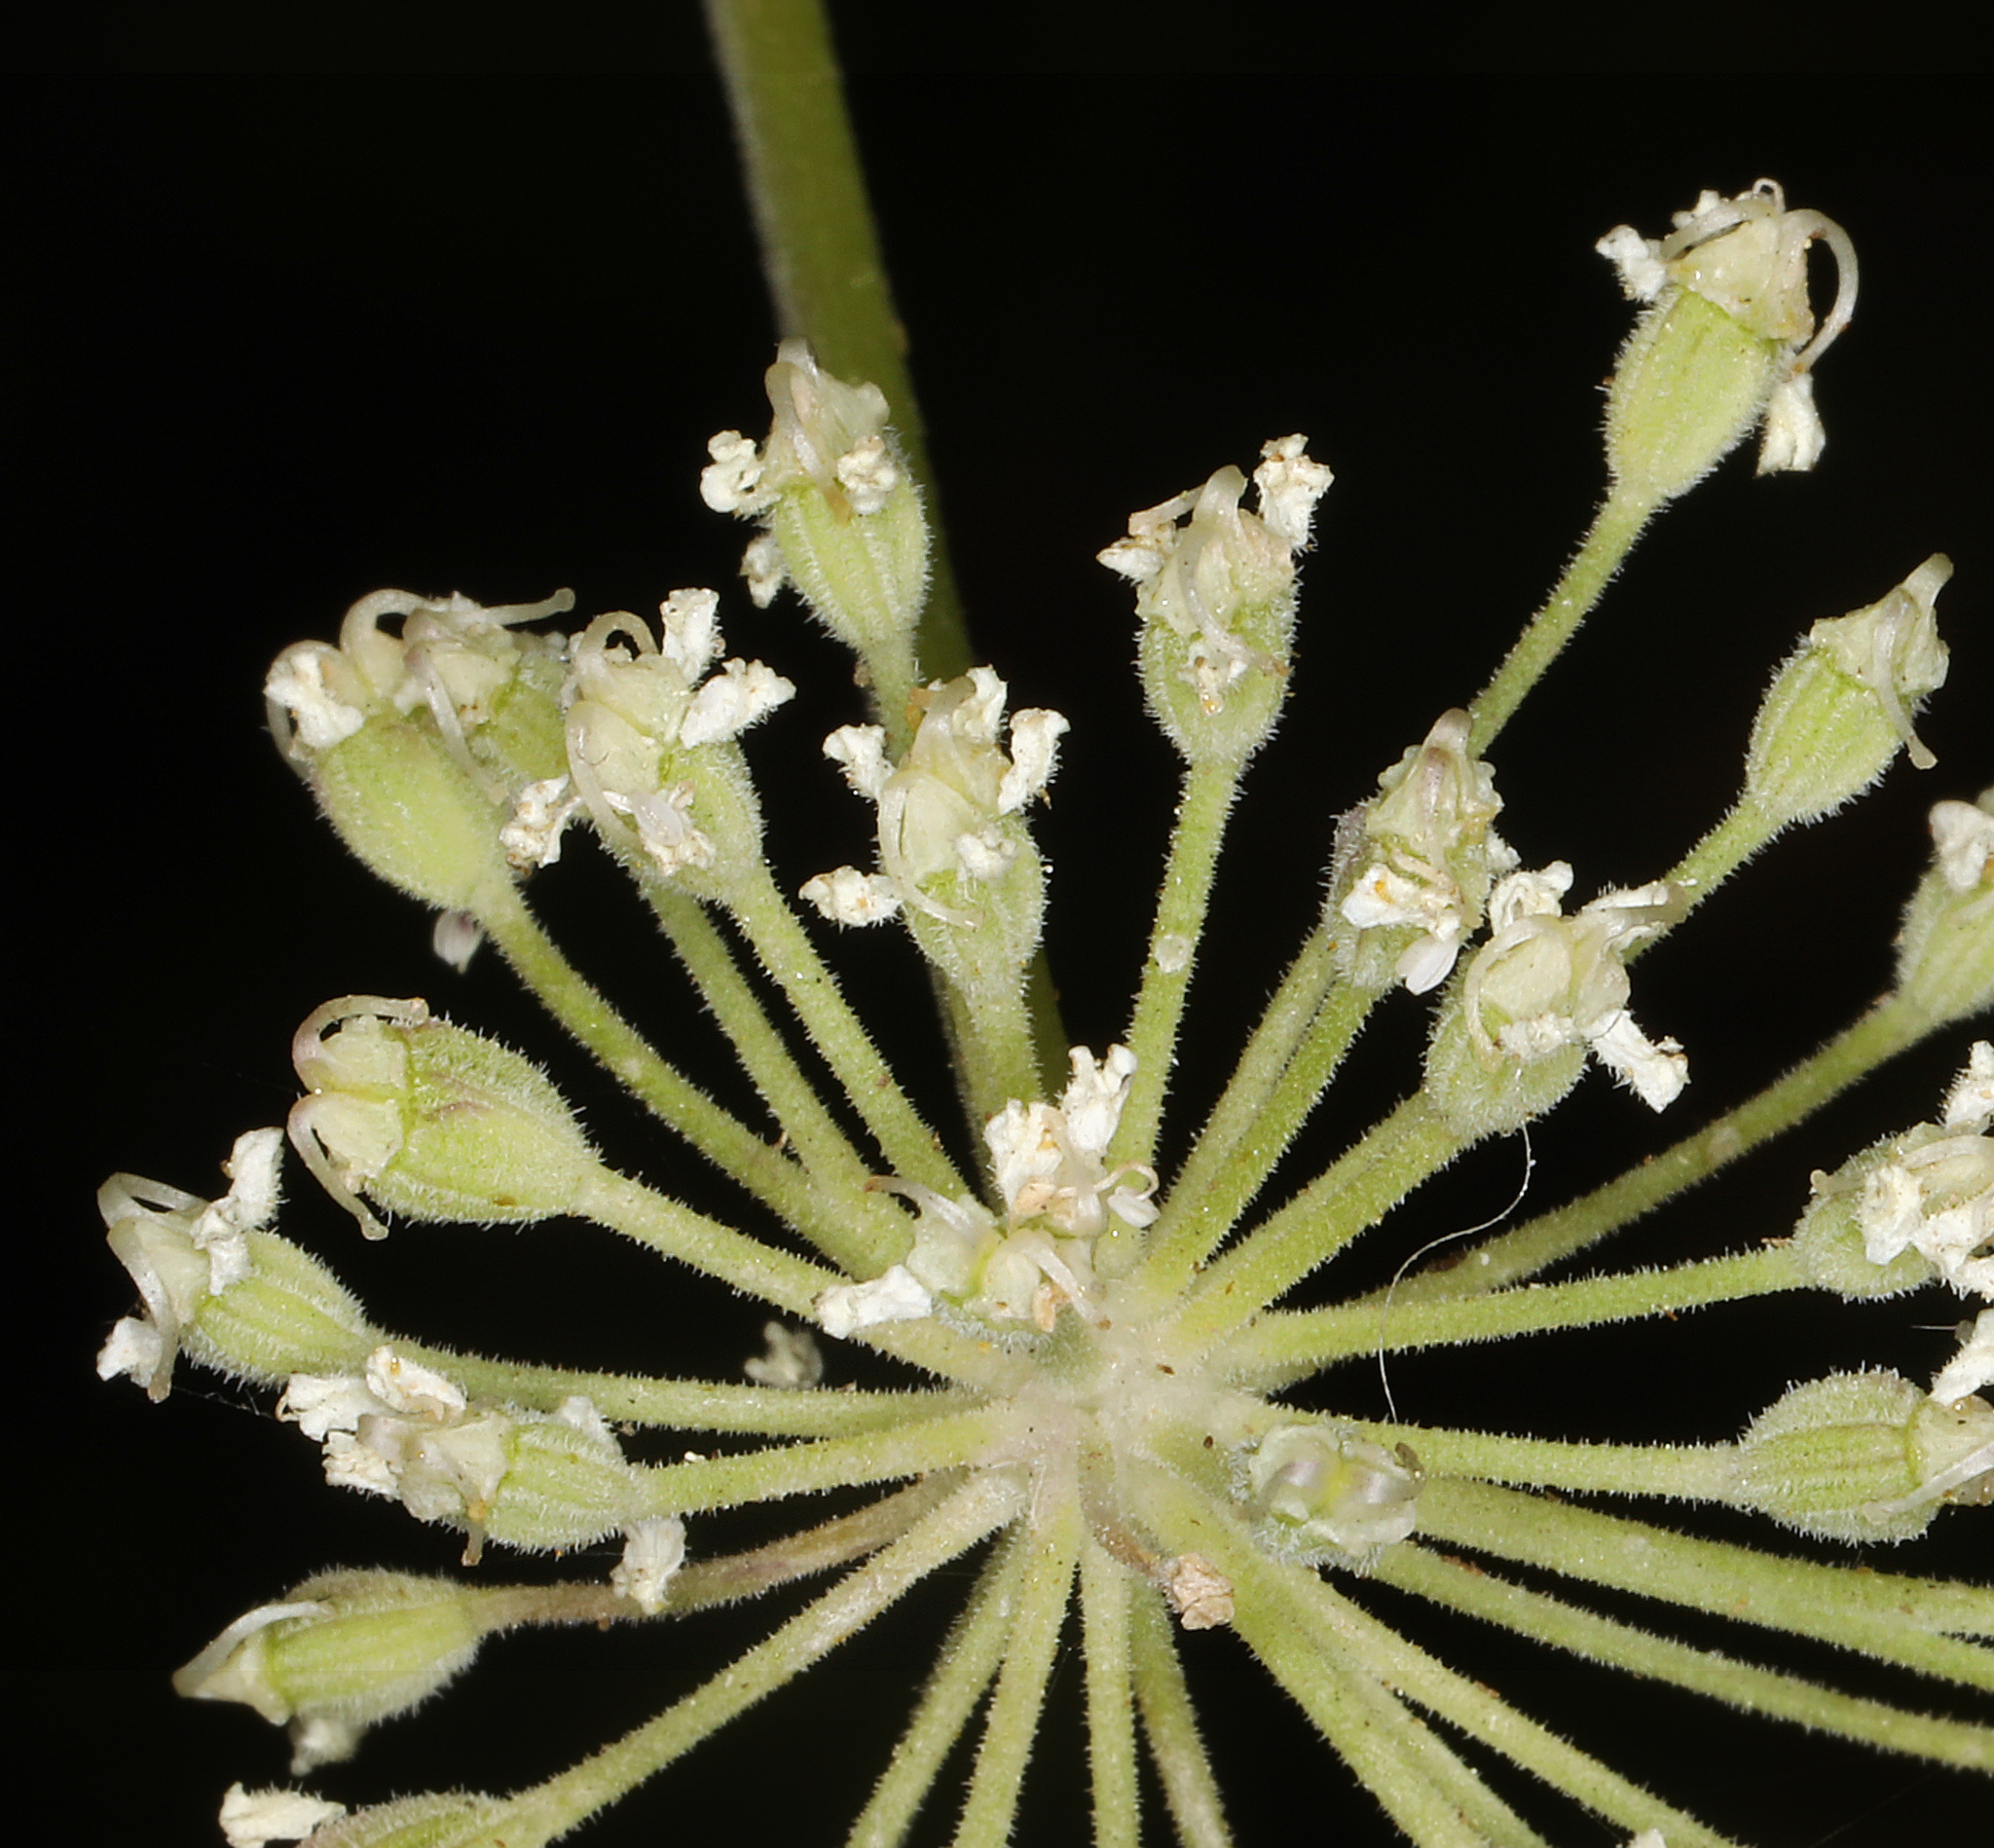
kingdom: Plantae
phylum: Tracheophyta
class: Magnoliopsida
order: Apiales
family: Apiaceae
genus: Angelica
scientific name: Angelica breweri
